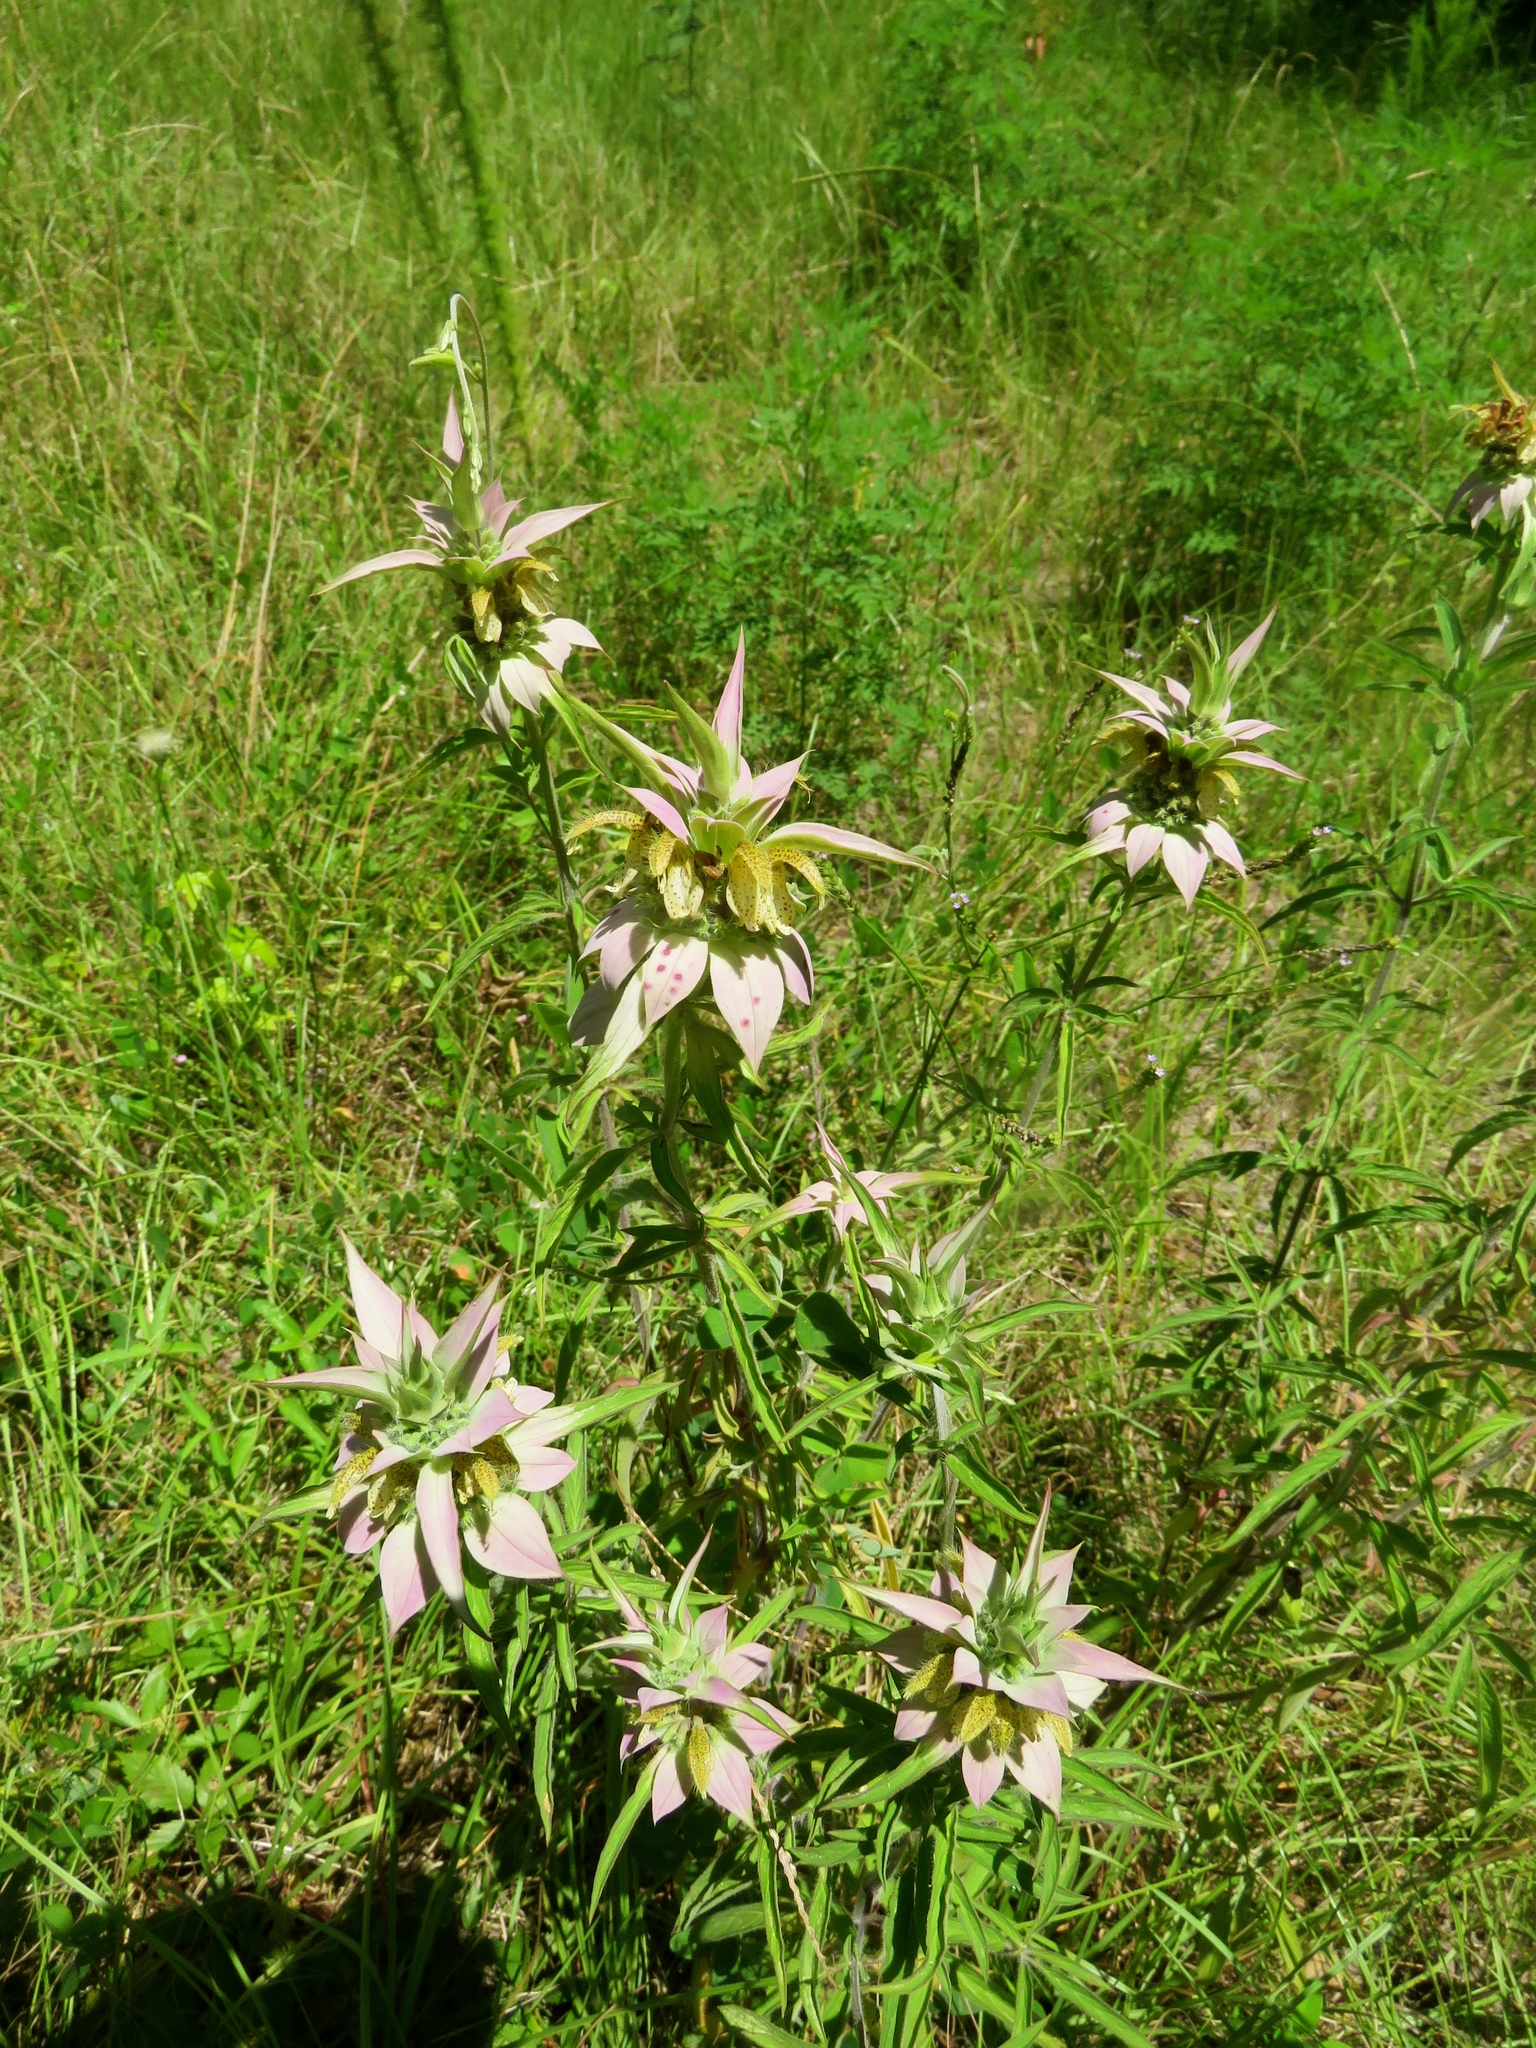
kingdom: Plantae
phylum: Tracheophyta
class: Magnoliopsida
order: Lamiales
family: Lamiaceae
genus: Monarda
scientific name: Monarda punctata
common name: Dotted monarda
